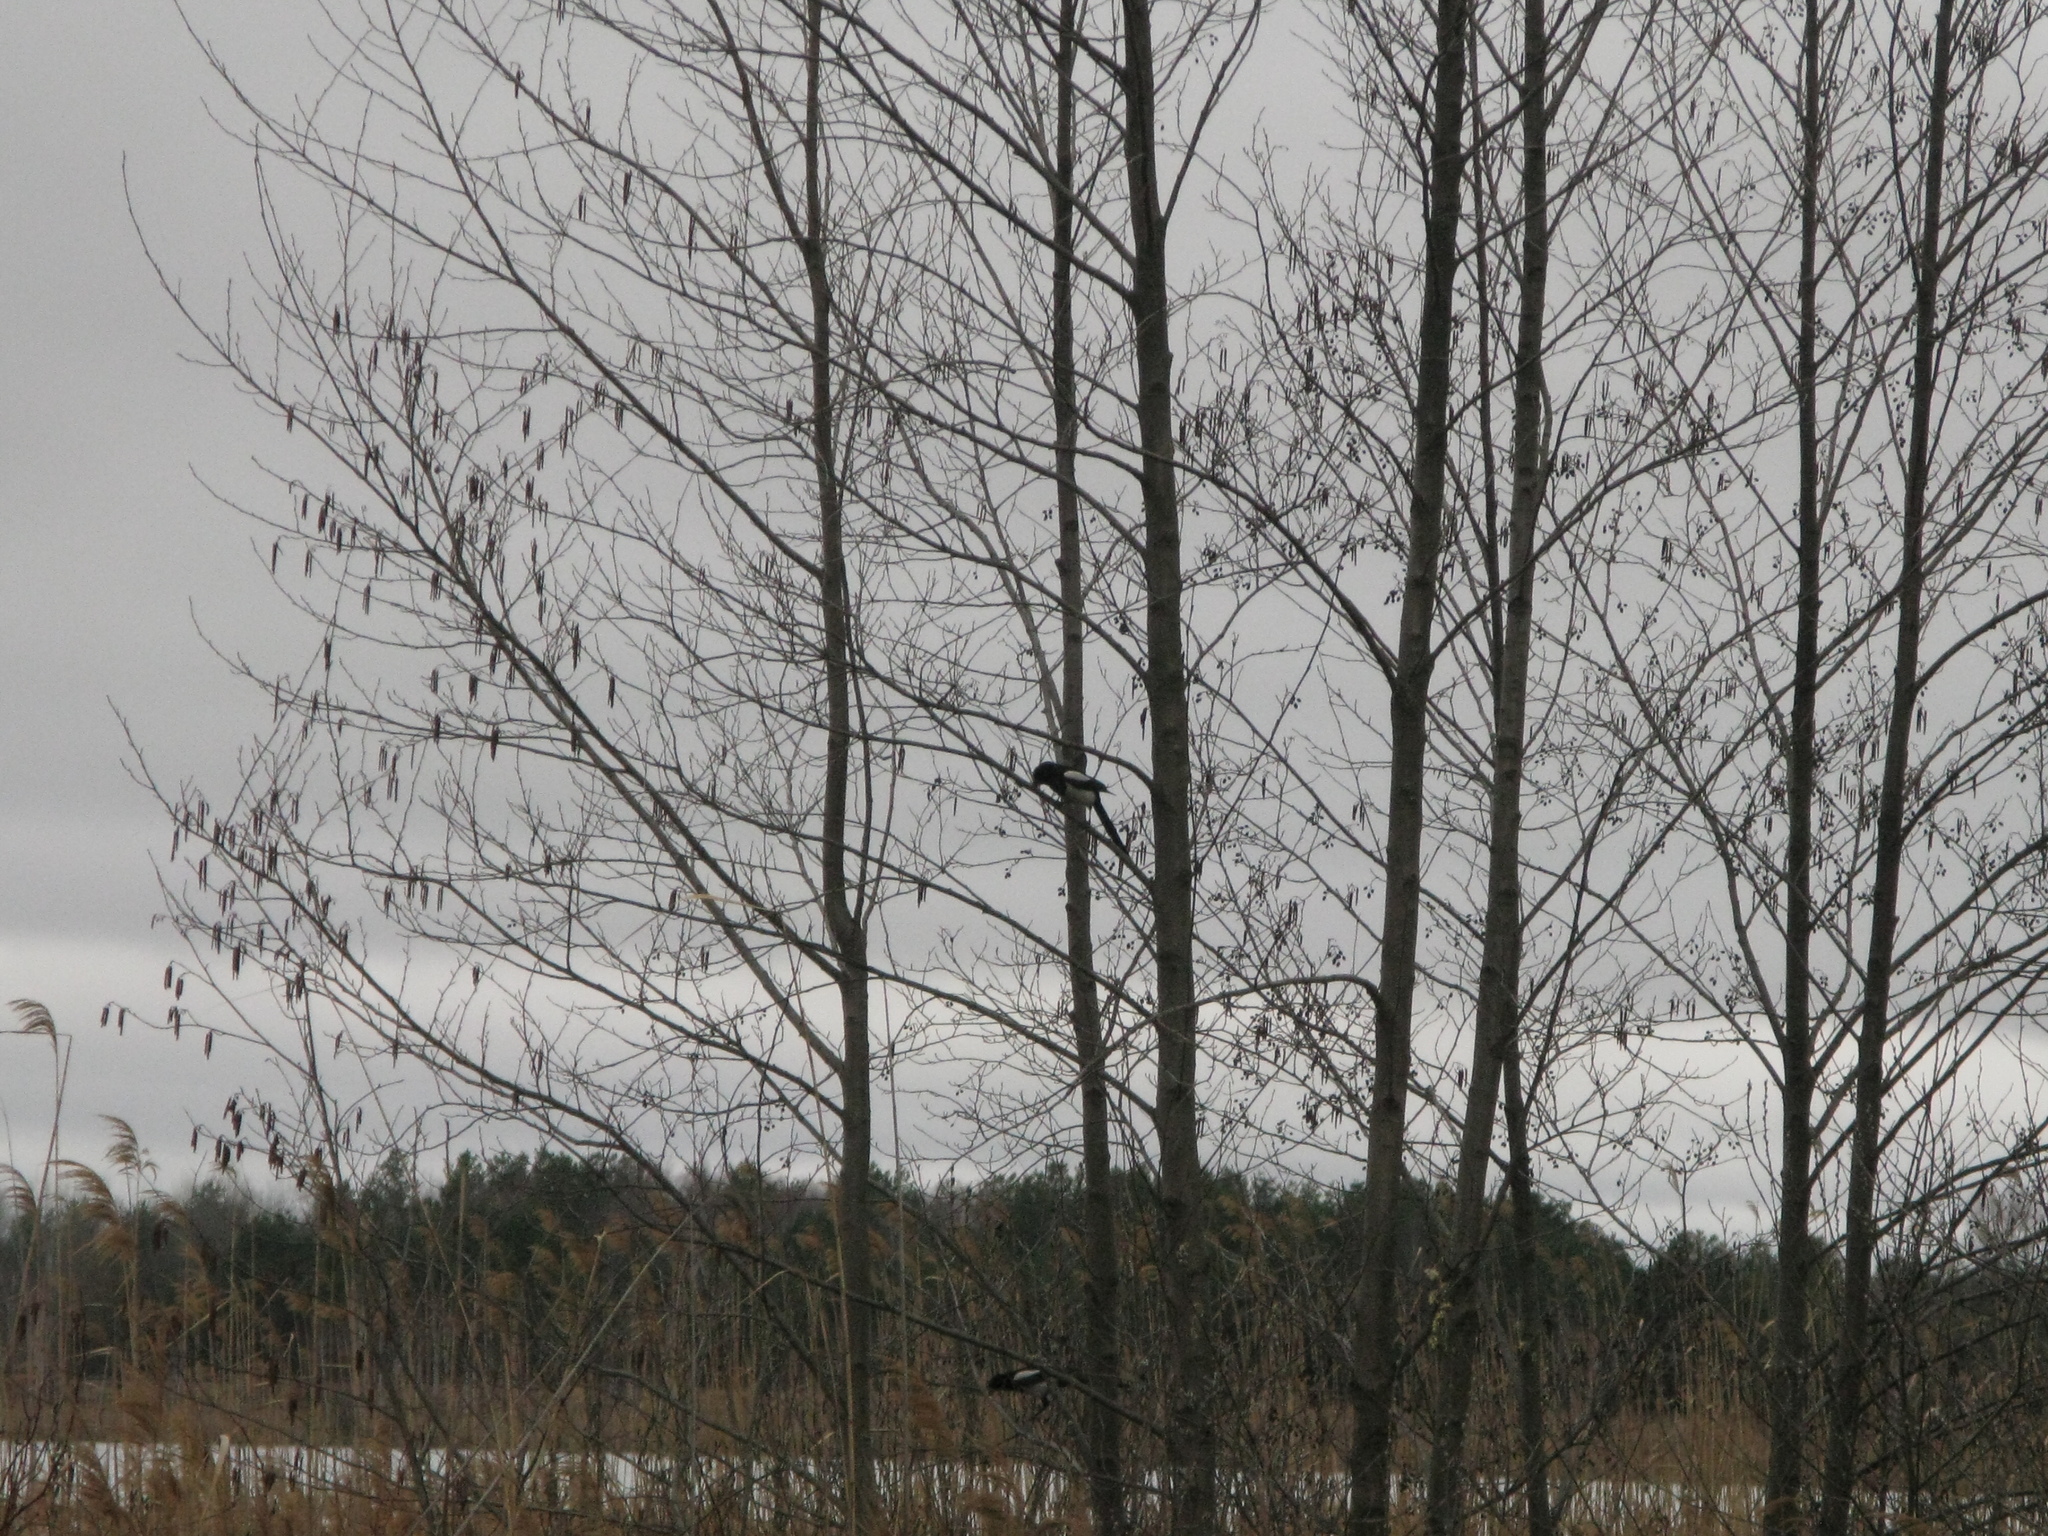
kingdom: Animalia
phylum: Chordata
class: Aves
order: Passeriformes
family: Corvidae
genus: Pica
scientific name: Pica pica
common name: Eurasian magpie
